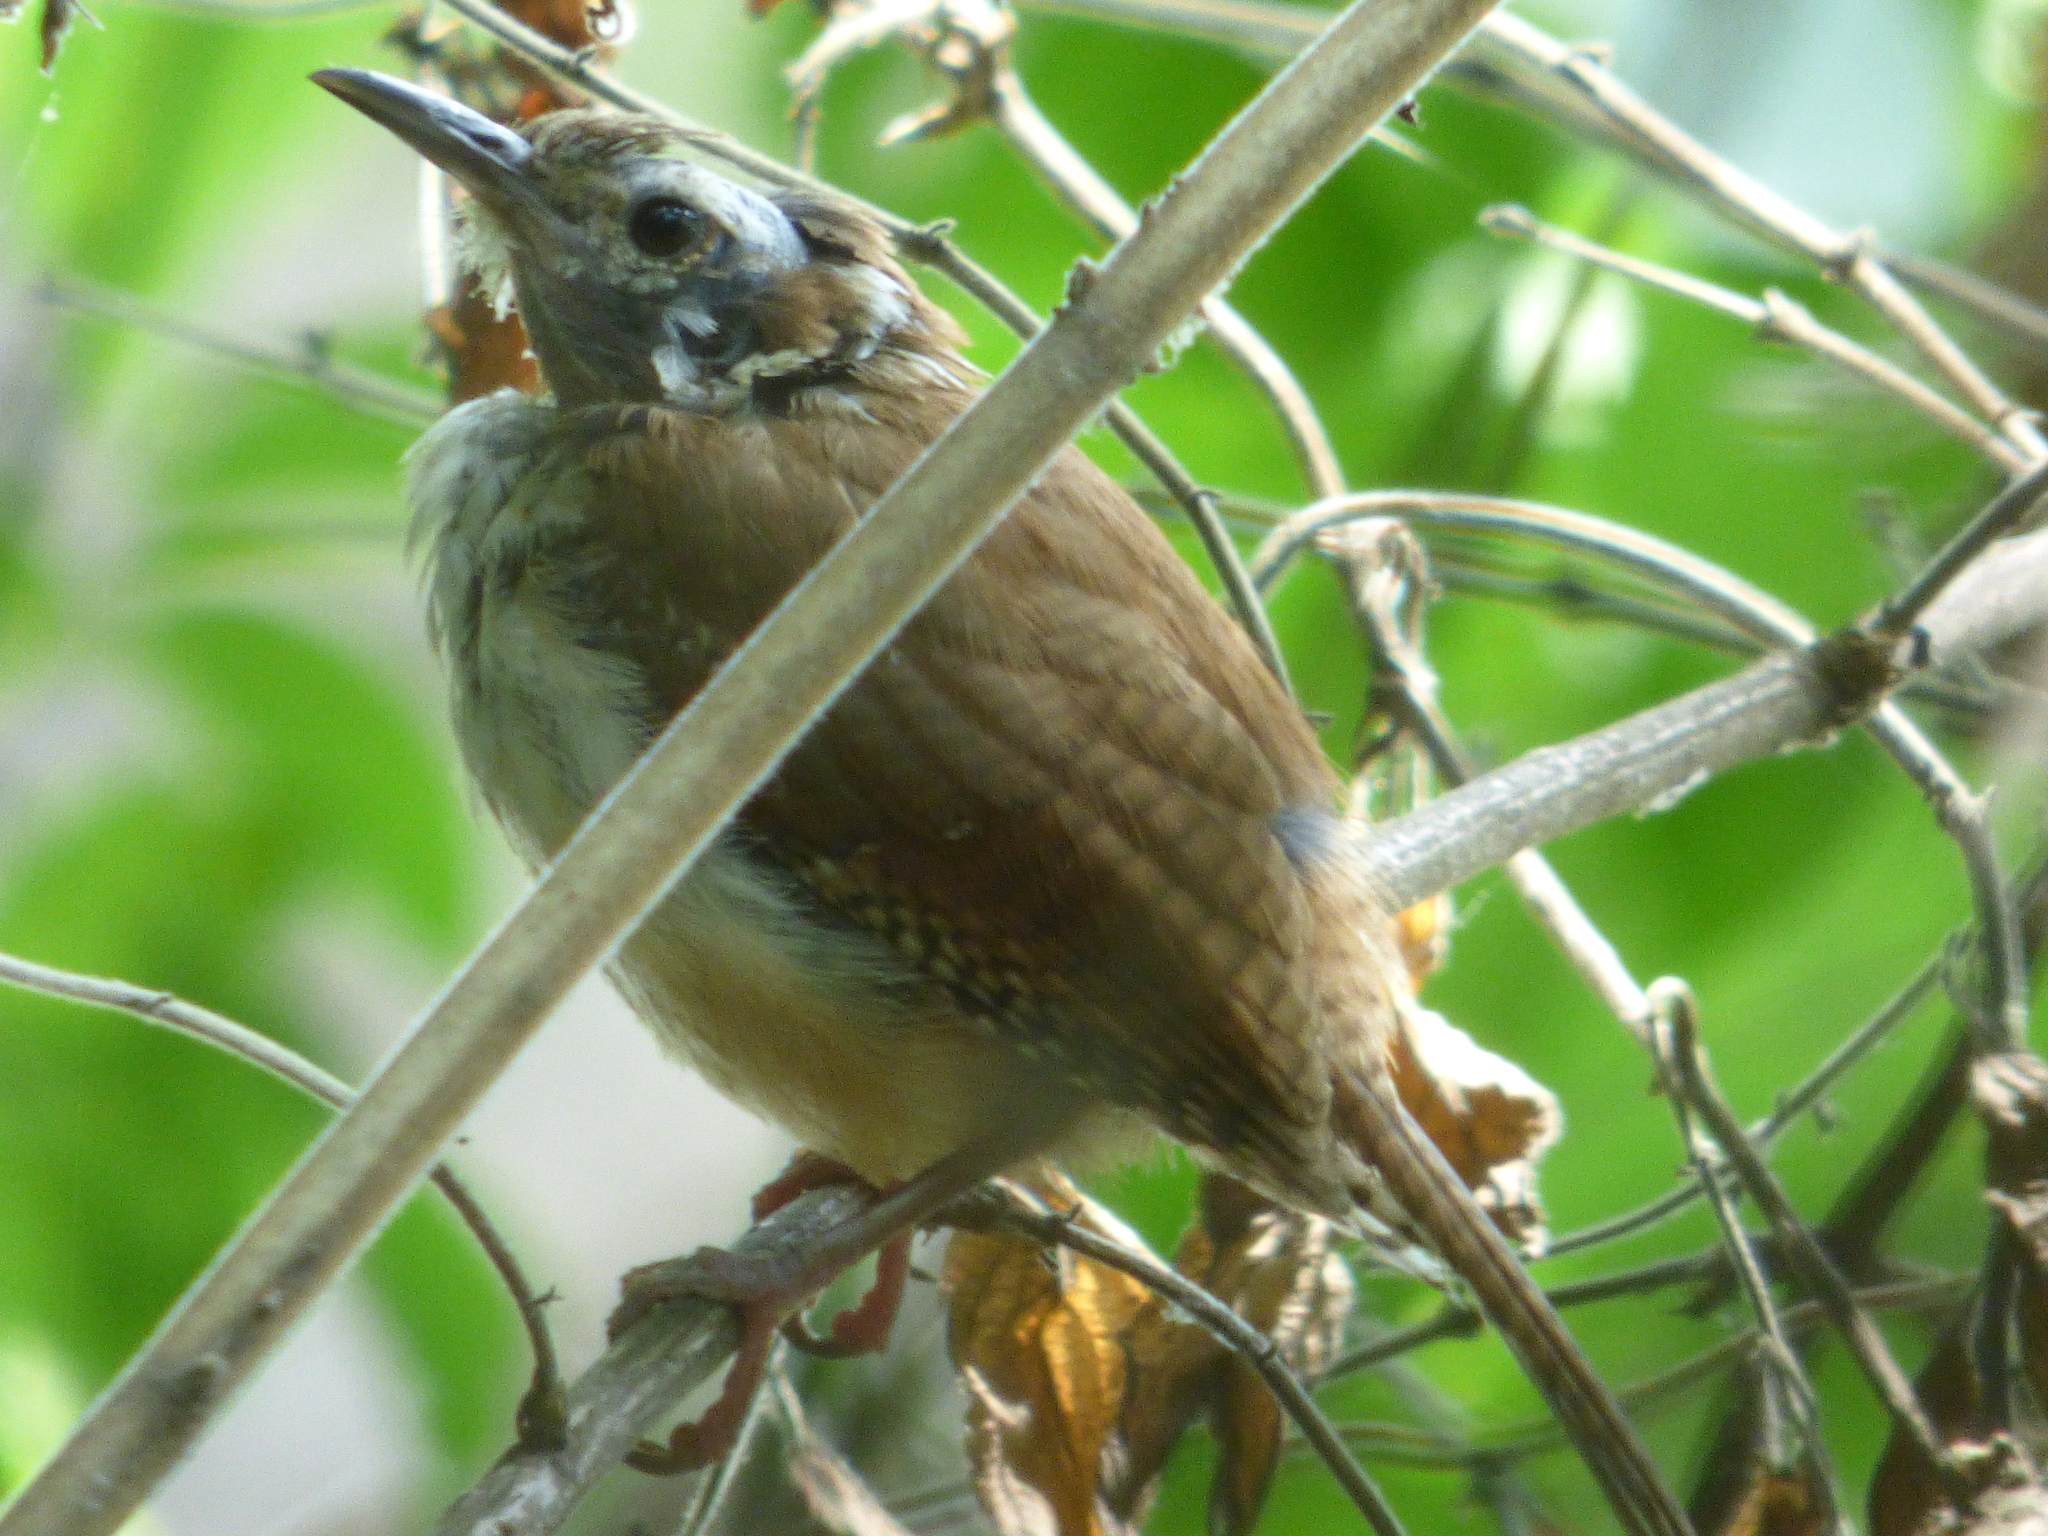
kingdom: Animalia
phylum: Chordata
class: Aves
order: Passeriformes
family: Troglodytidae
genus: Thryothorus
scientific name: Thryothorus ludovicianus
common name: Carolina wren
